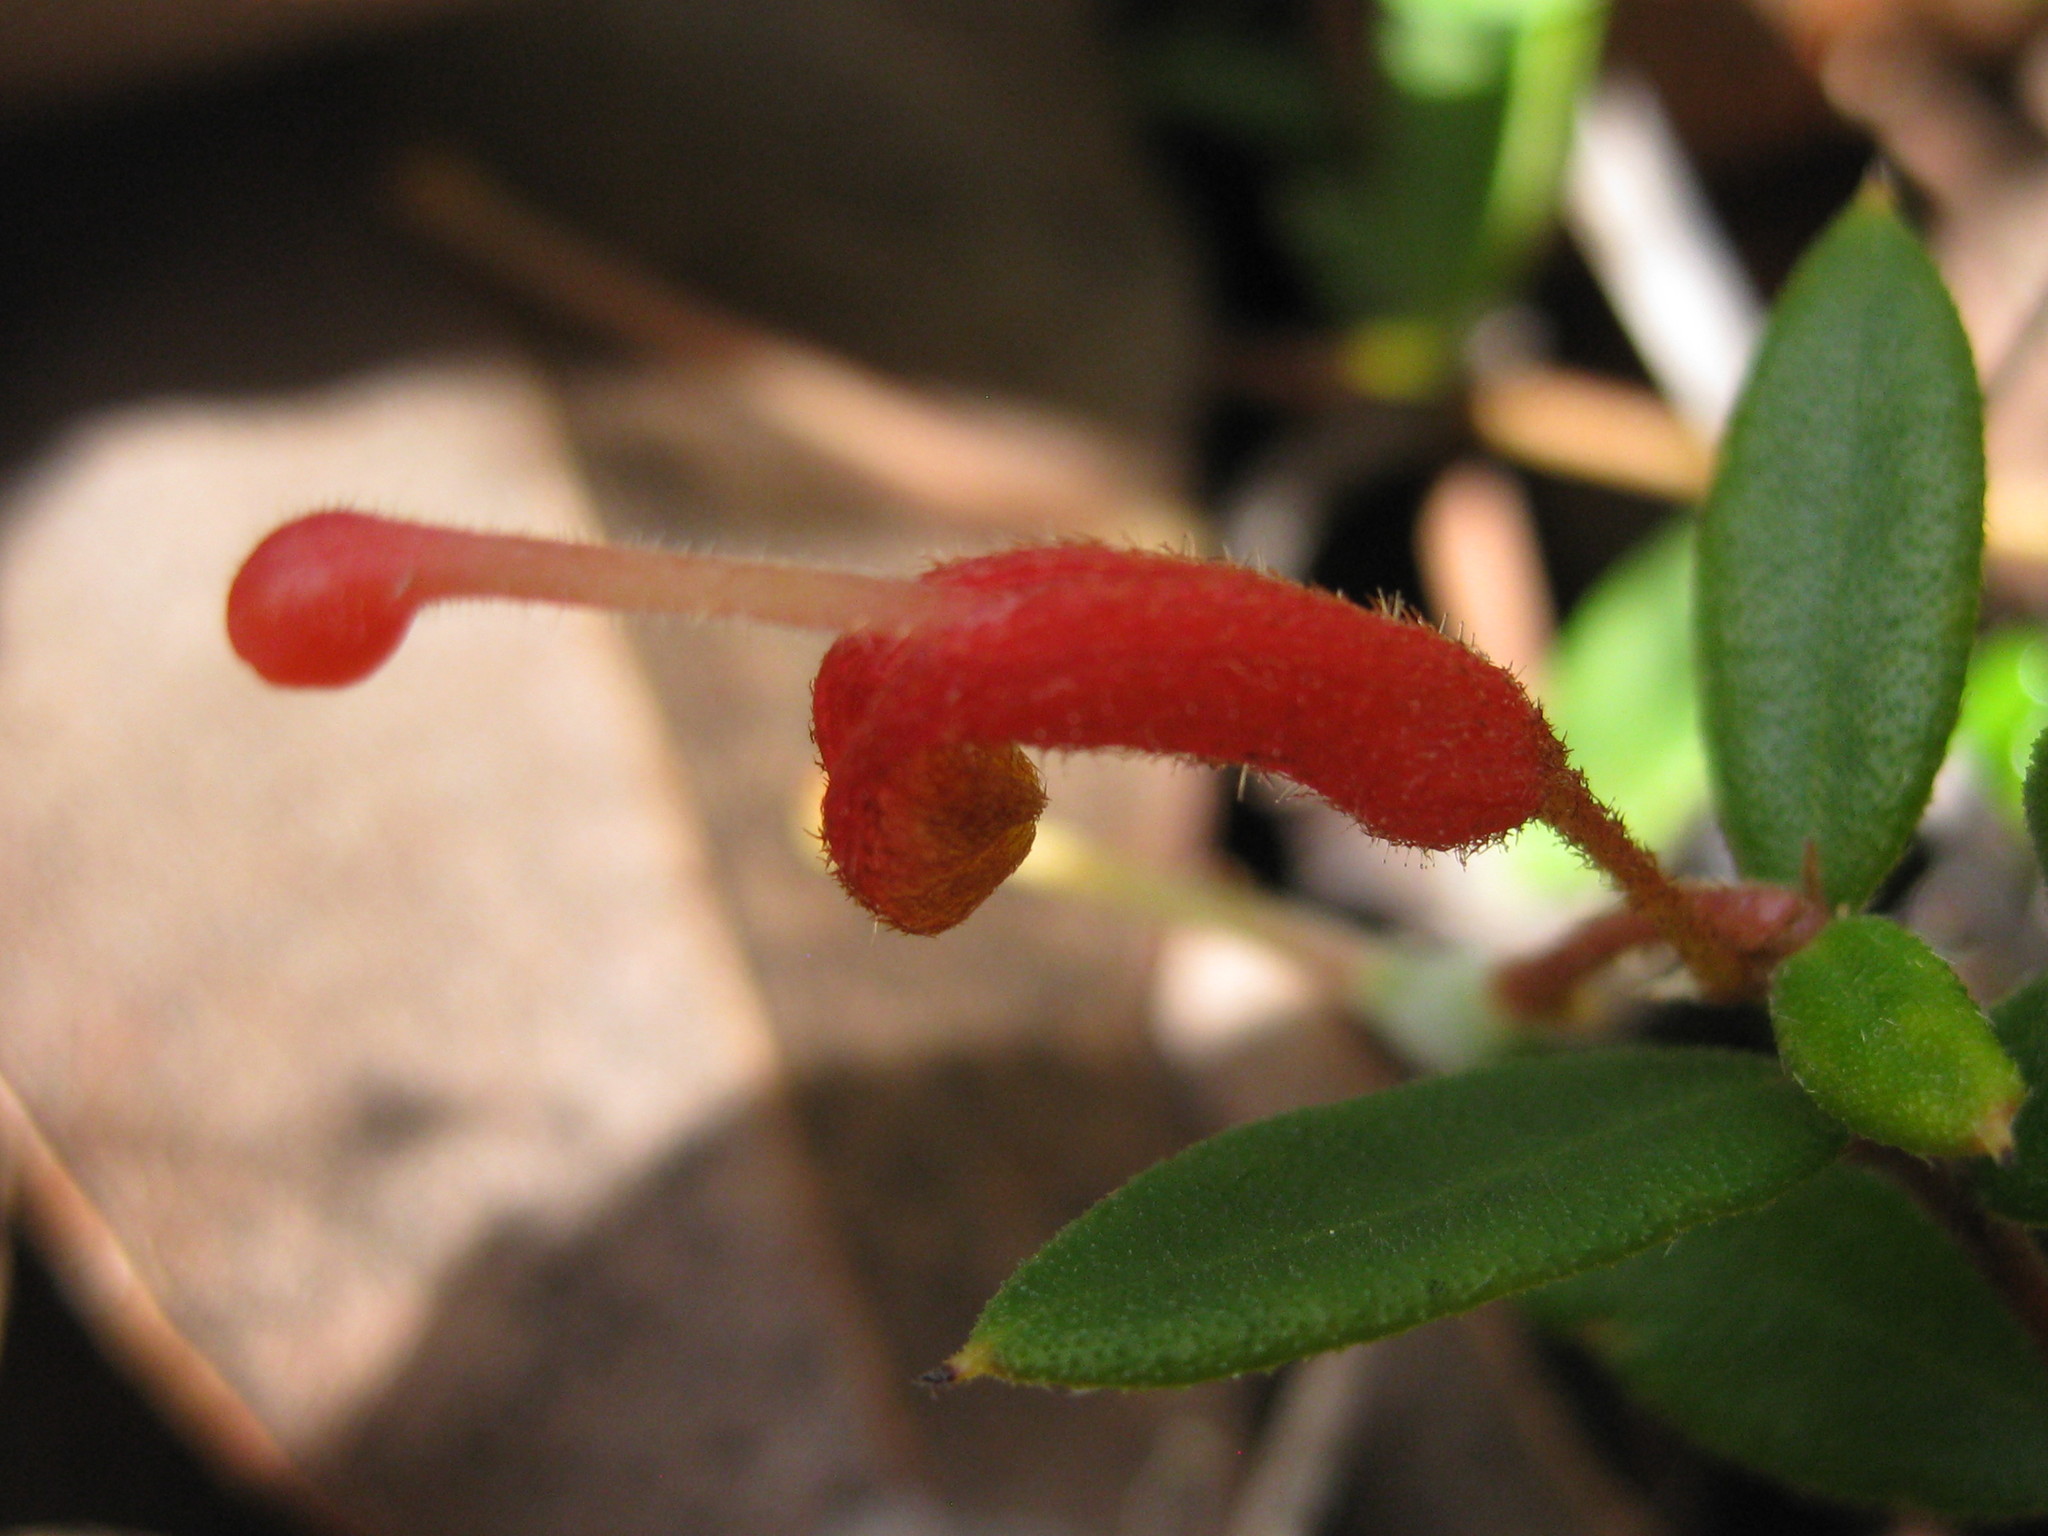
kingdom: Plantae
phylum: Tracheophyta
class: Magnoliopsida
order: Proteales
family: Proteaceae
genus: Grevillea
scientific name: Grevillea depauperata
